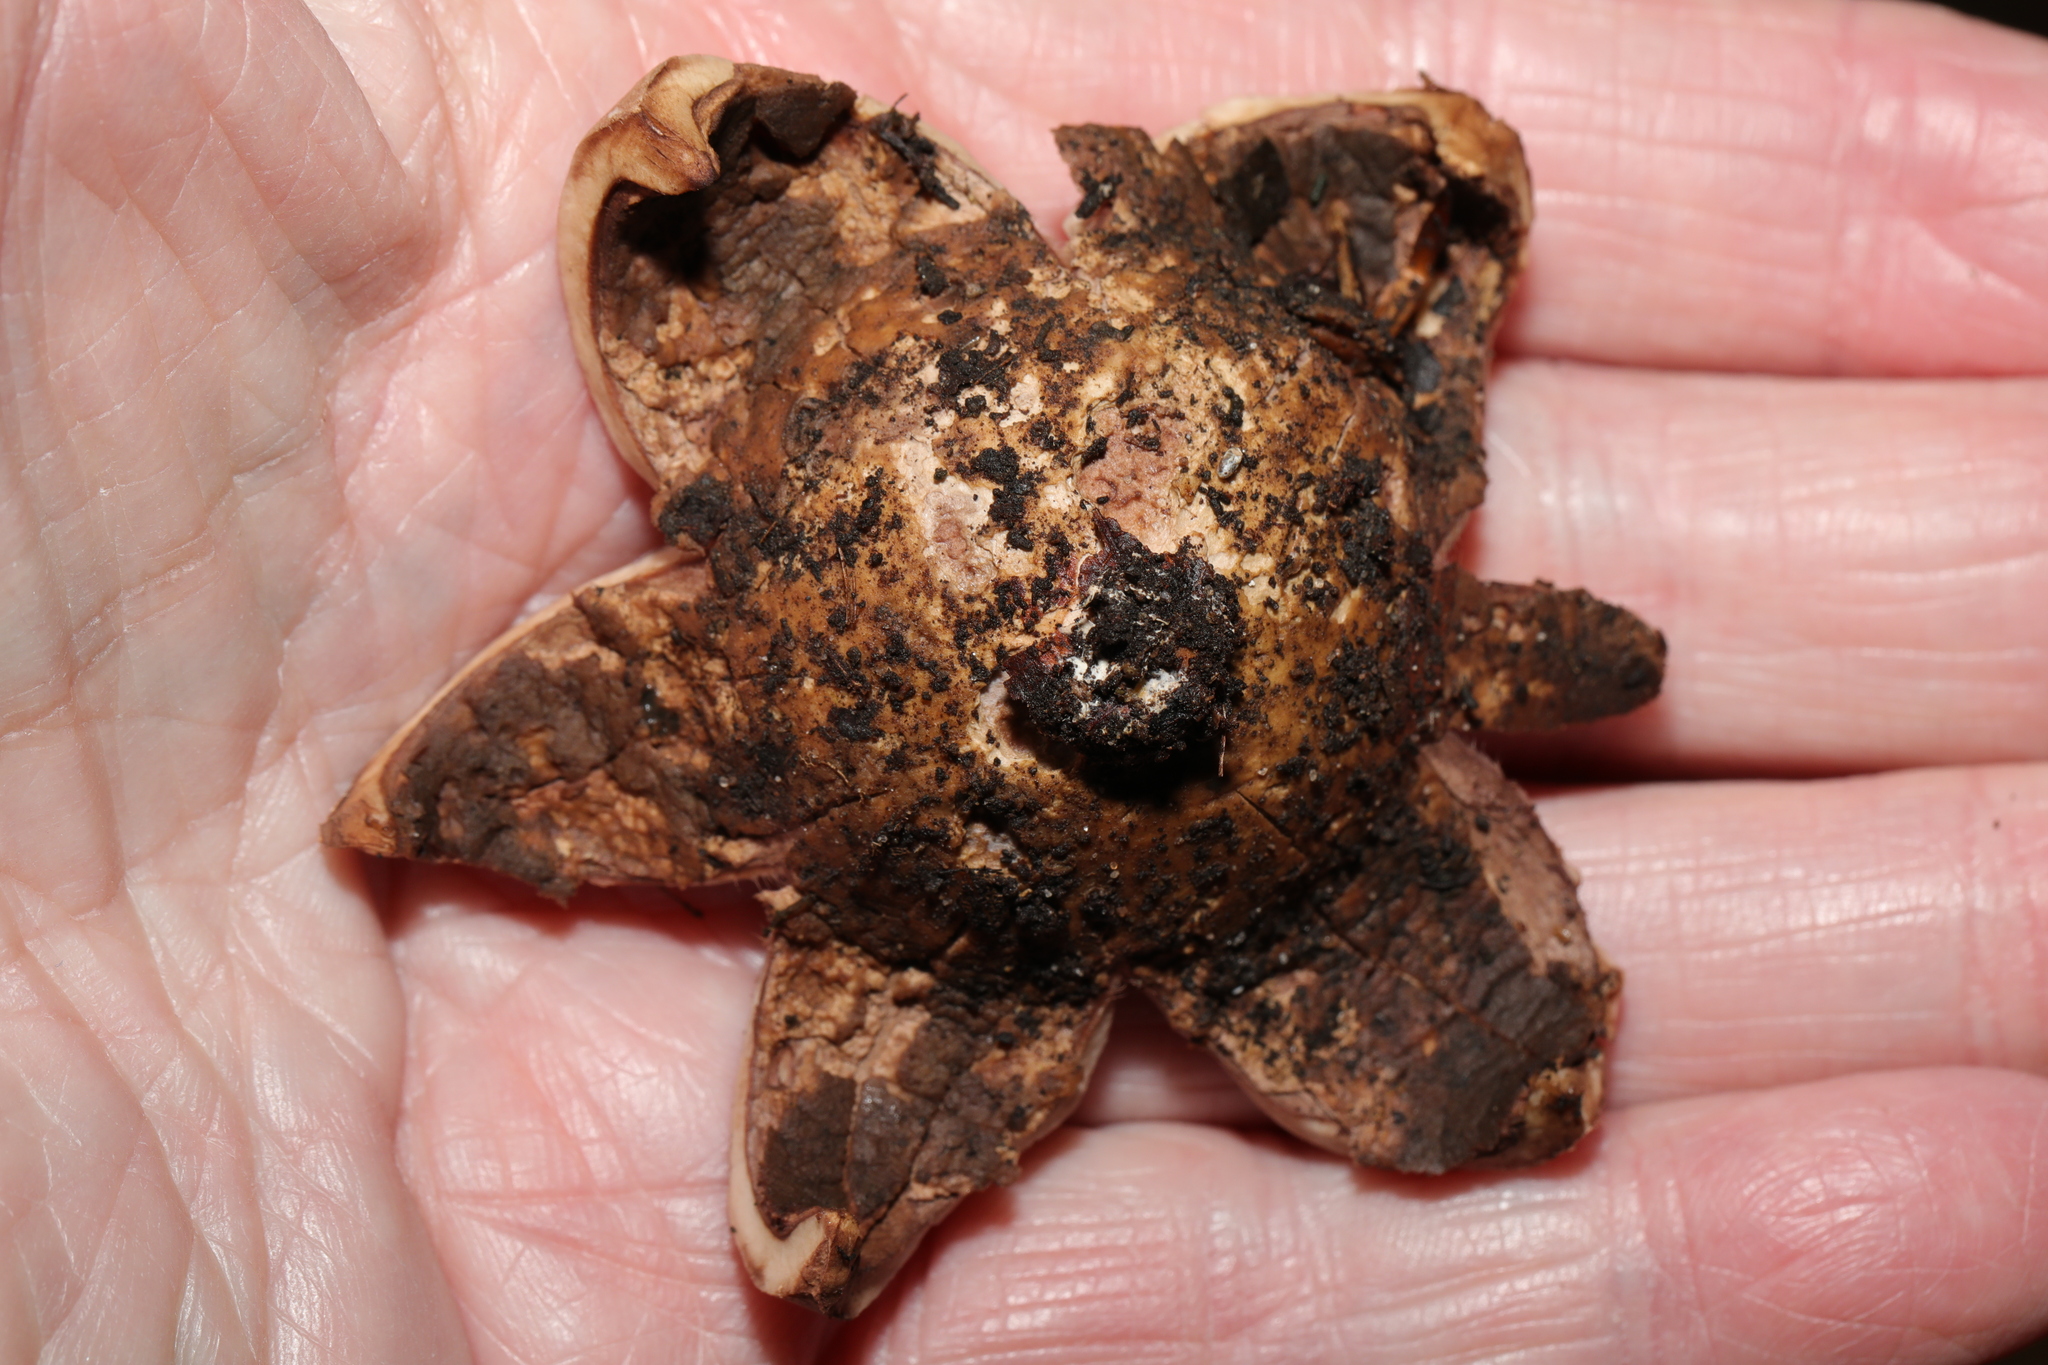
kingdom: Fungi
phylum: Basidiomycota
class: Agaricomycetes
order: Geastrales
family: Geastraceae
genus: Geastrum
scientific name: Geastrum triplex
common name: Collared earthstar
